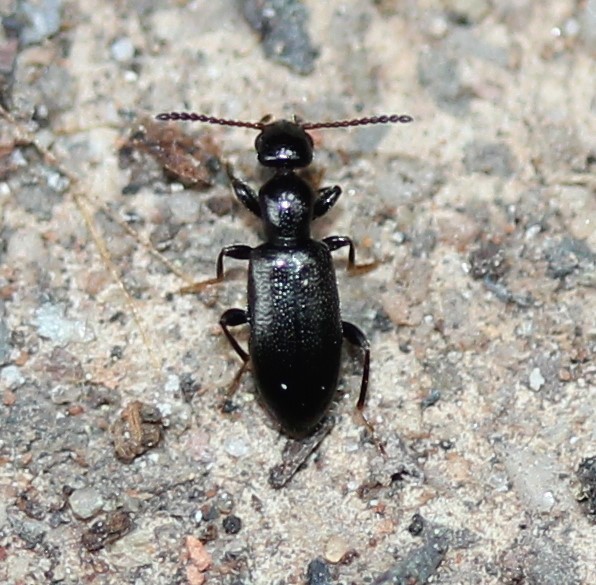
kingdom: Animalia
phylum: Arthropoda
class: Insecta
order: Coleoptera
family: Anthicidae
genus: Vacusus
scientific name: Vacusus confinis
